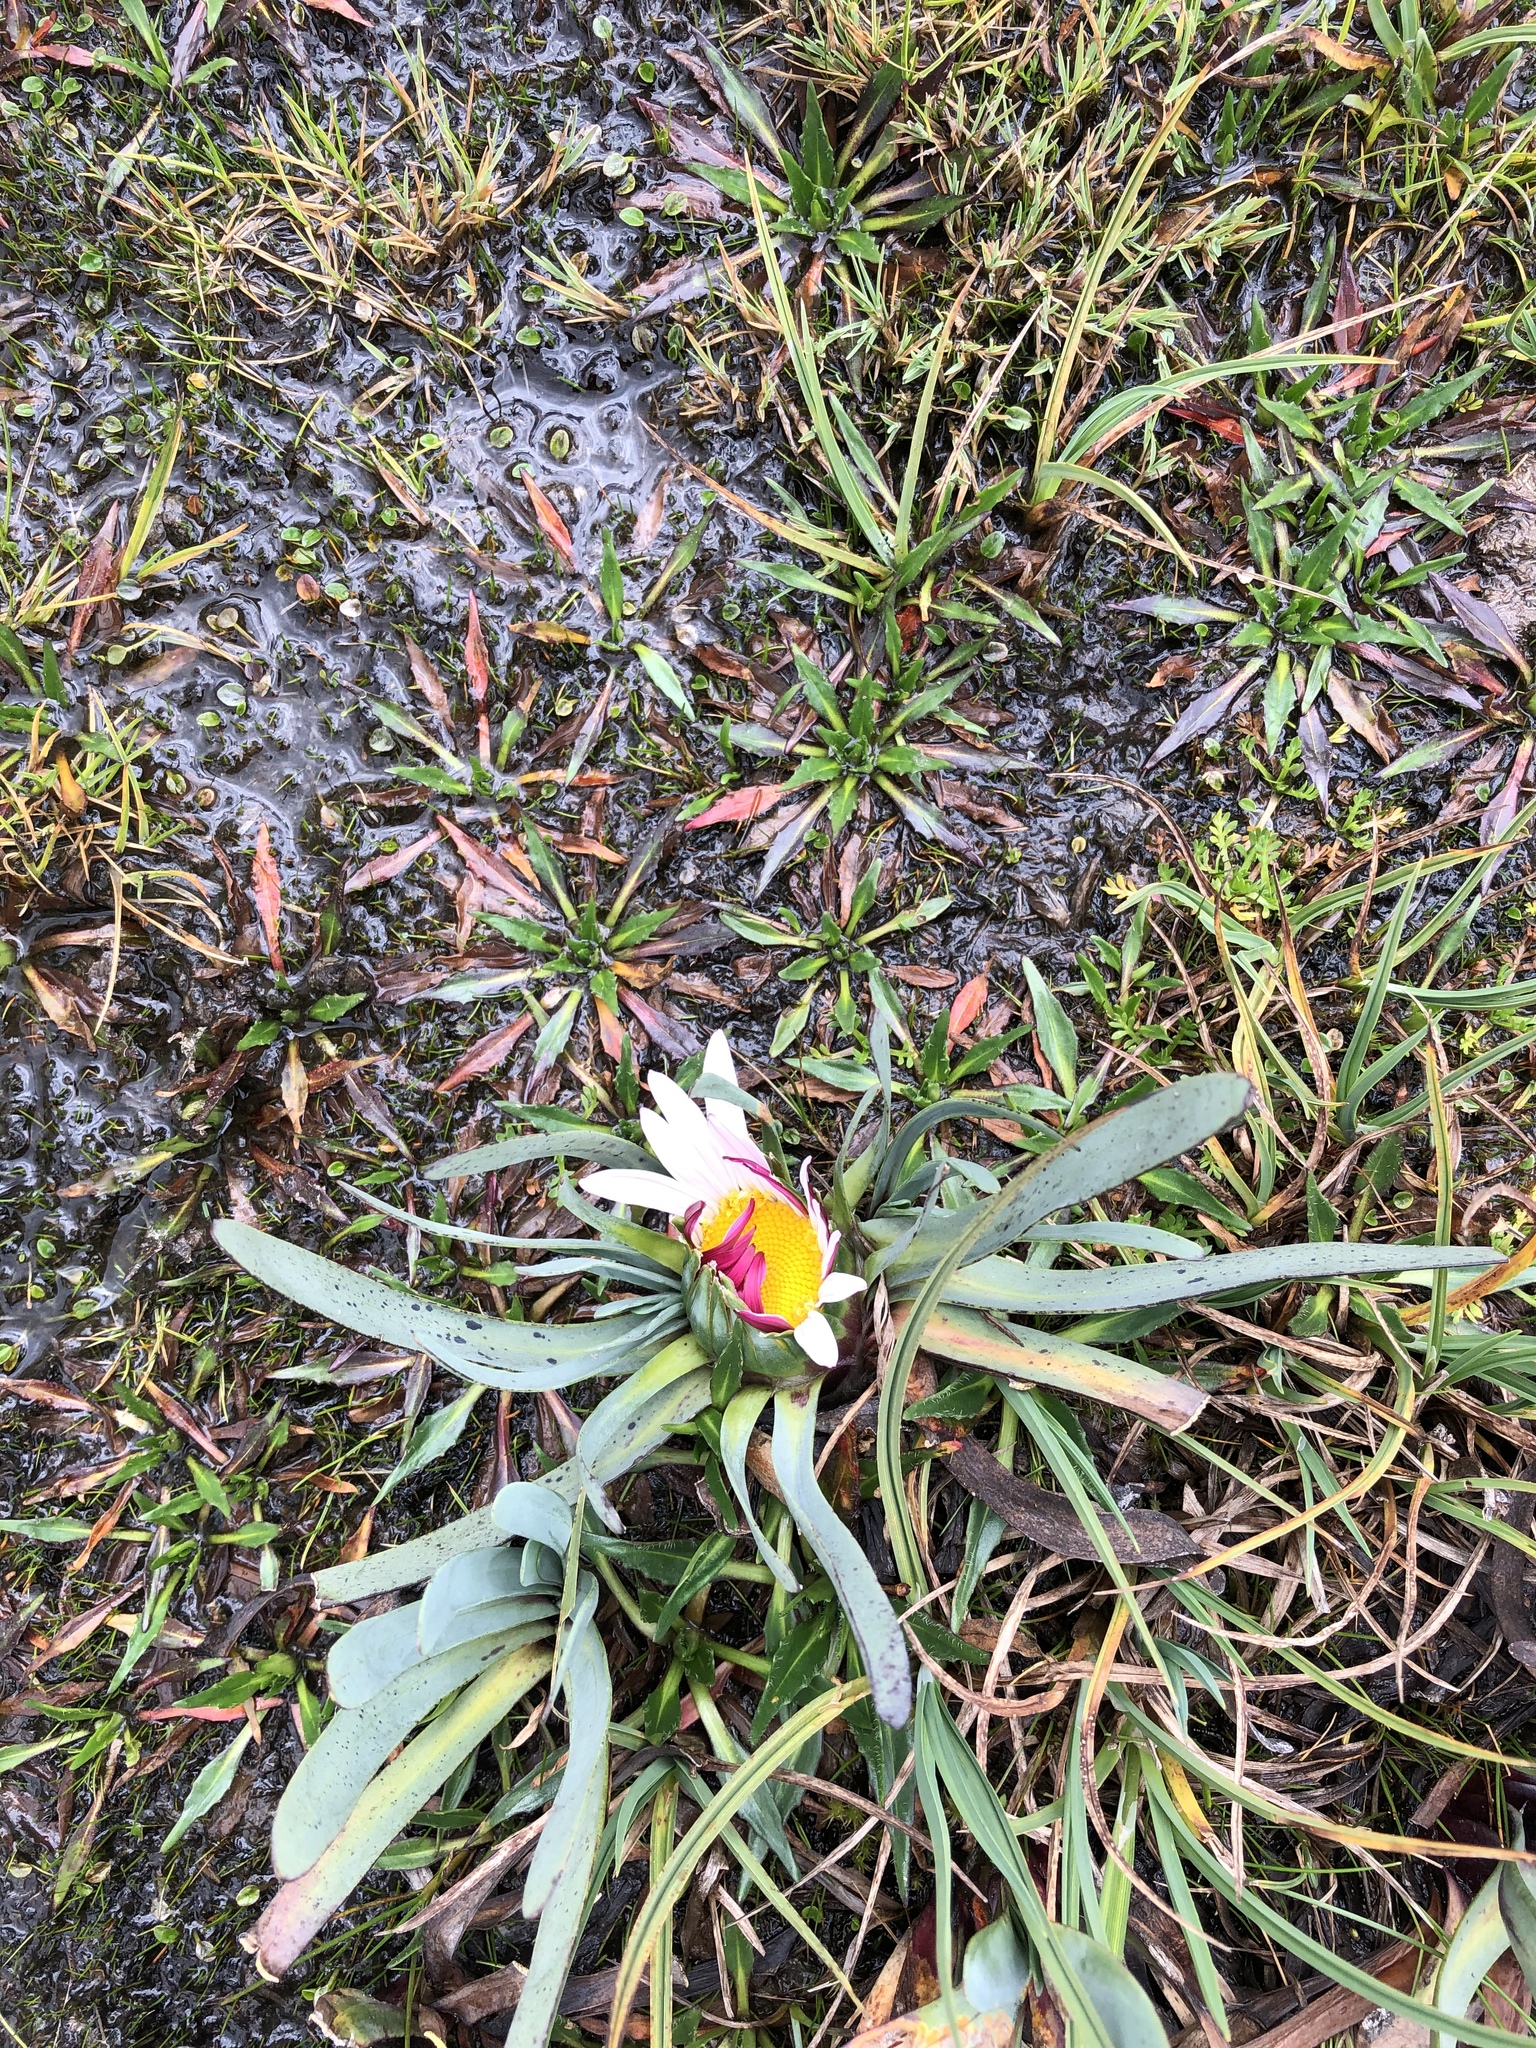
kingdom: Plantae
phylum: Tracheophyta
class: Magnoliopsida
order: Asterales
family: Asteraceae
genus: Rockhausenia
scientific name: Rockhausenia nubigena
